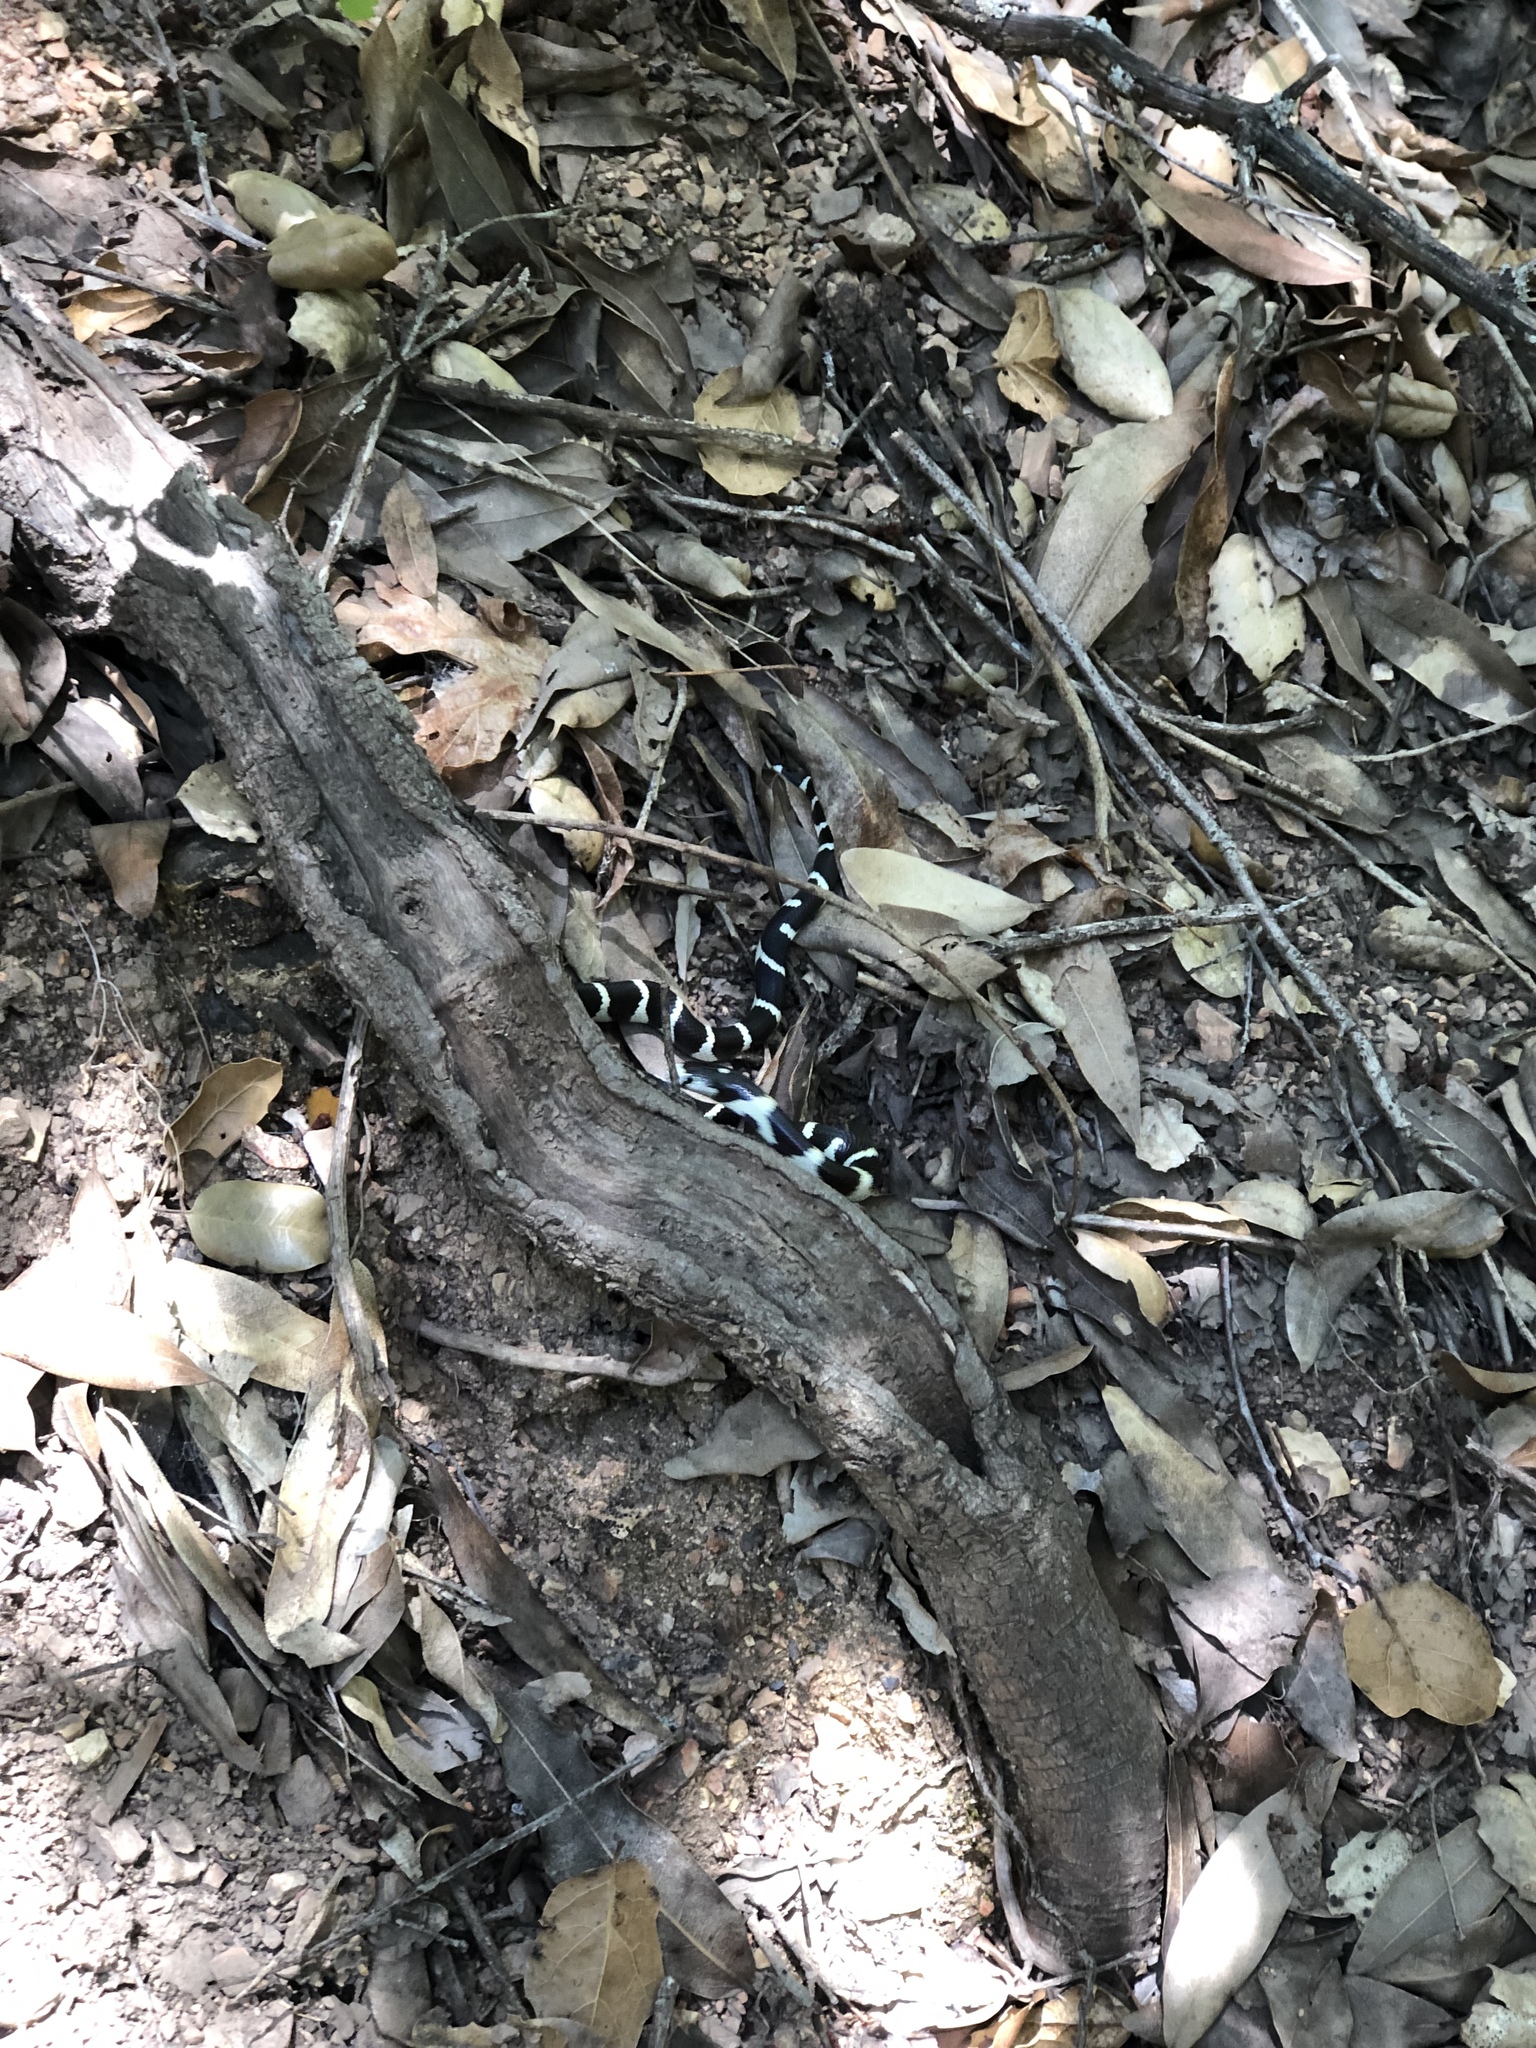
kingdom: Animalia
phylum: Chordata
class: Squamata
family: Colubridae
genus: Lampropeltis
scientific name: Lampropeltis californiae
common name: California kingsnake
